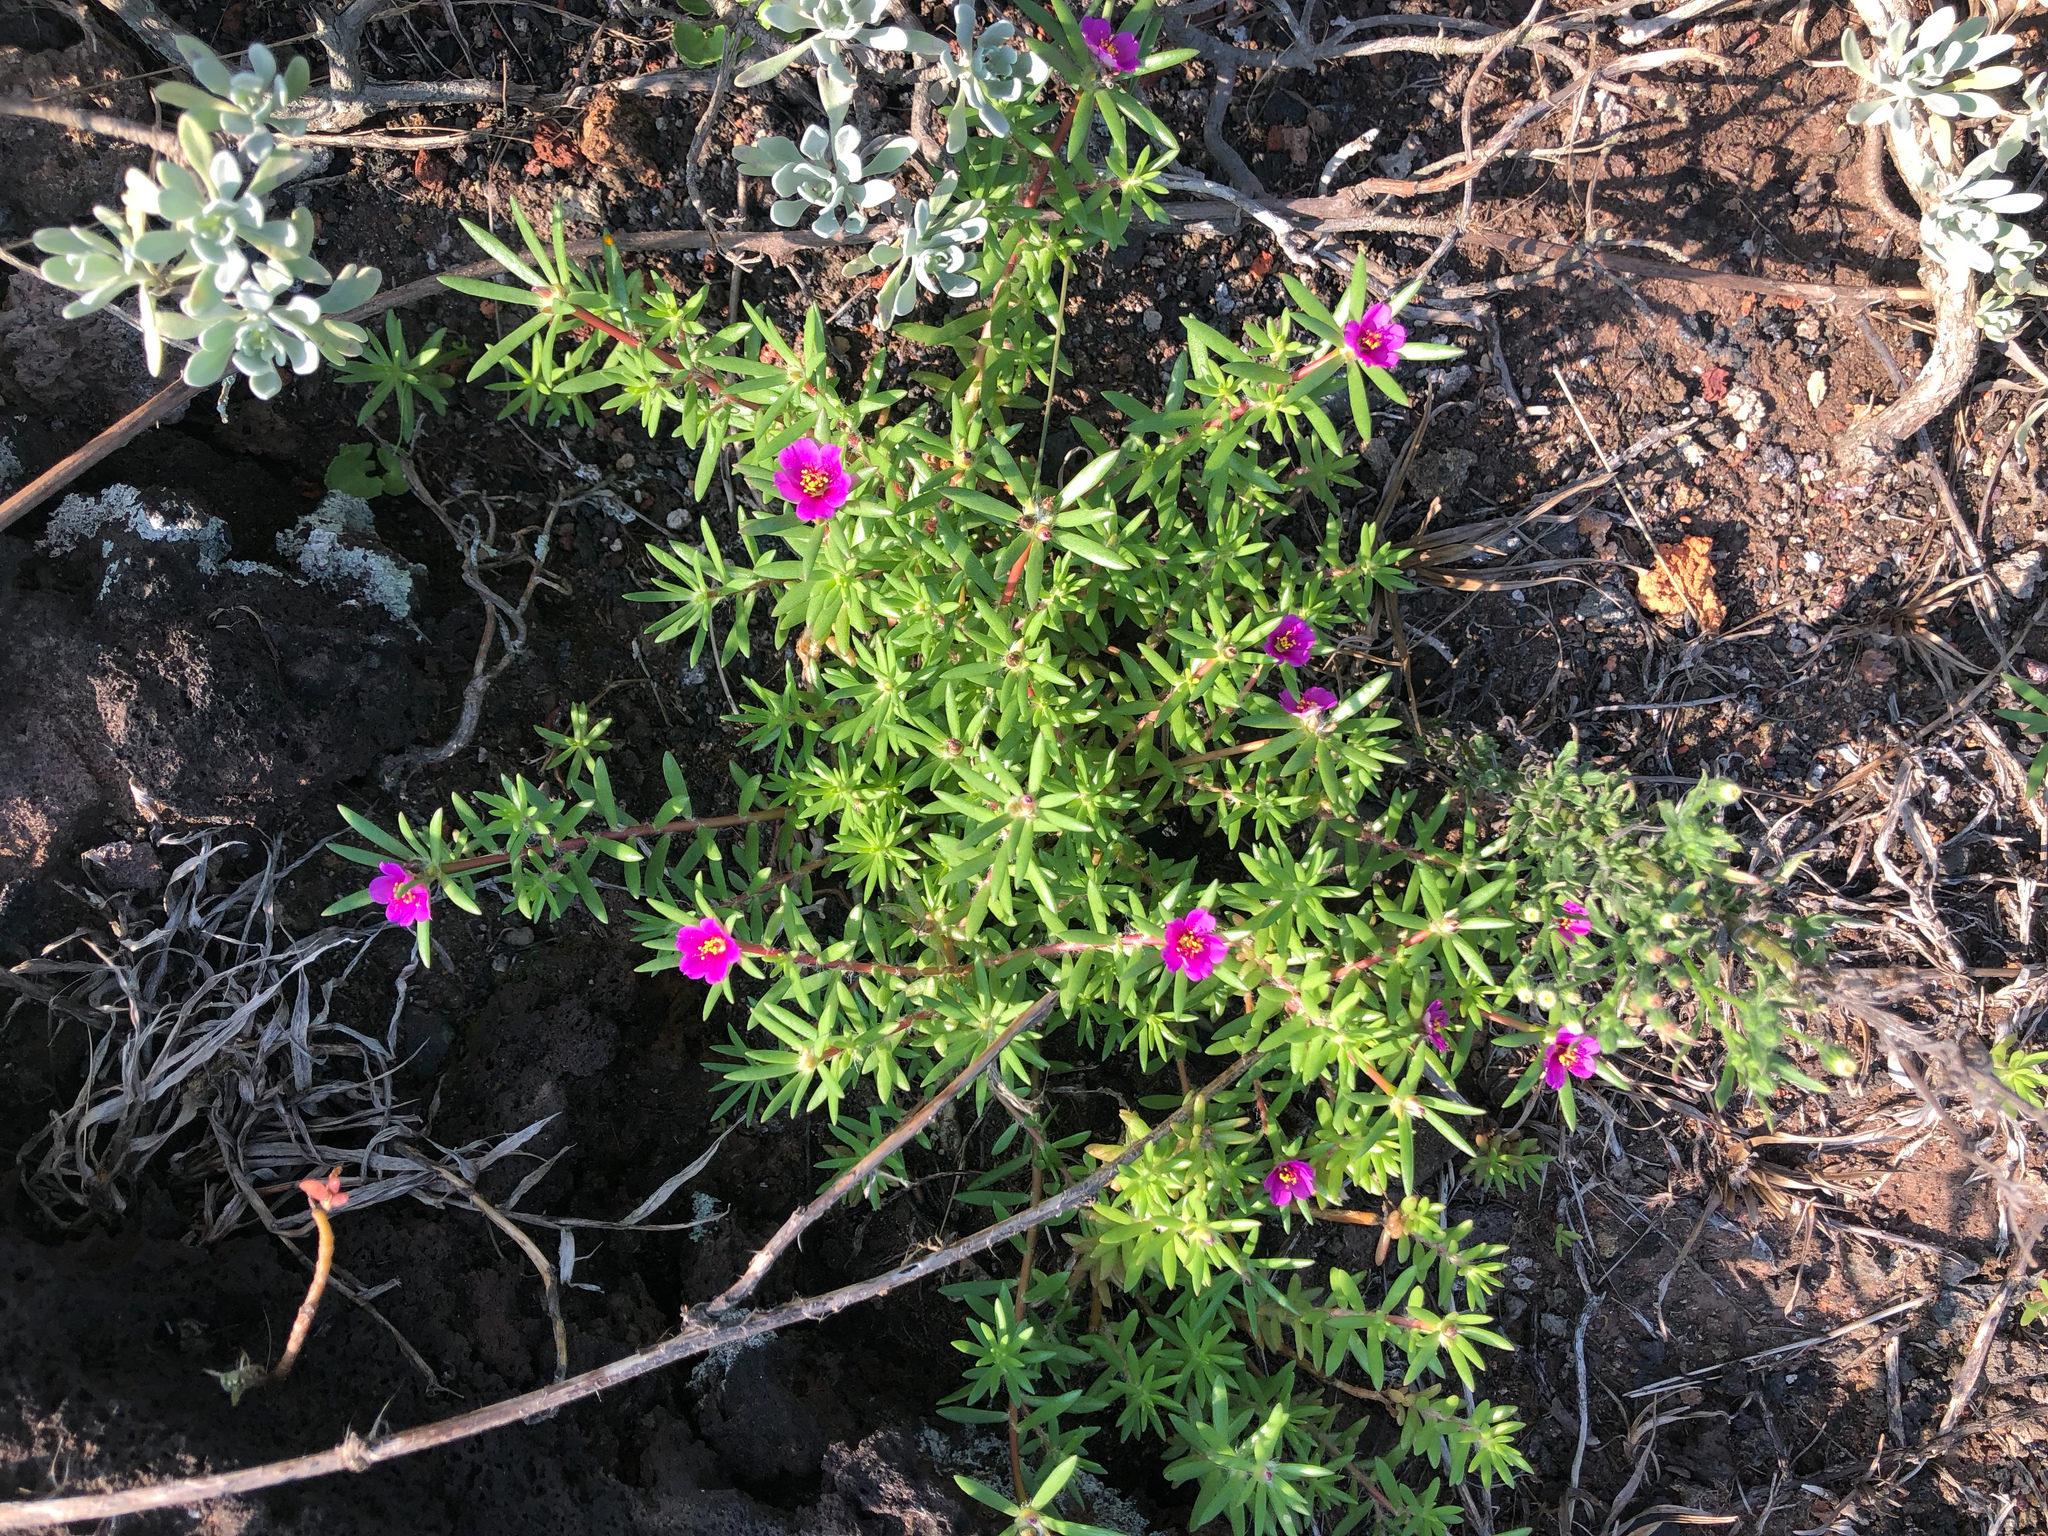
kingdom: Plantae
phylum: Tracheophyta
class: Magnoliopsida
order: Caryophyllales
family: Portulacaceae
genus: Portulaca
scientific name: Portulaca pilosa
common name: Kiss me quick
